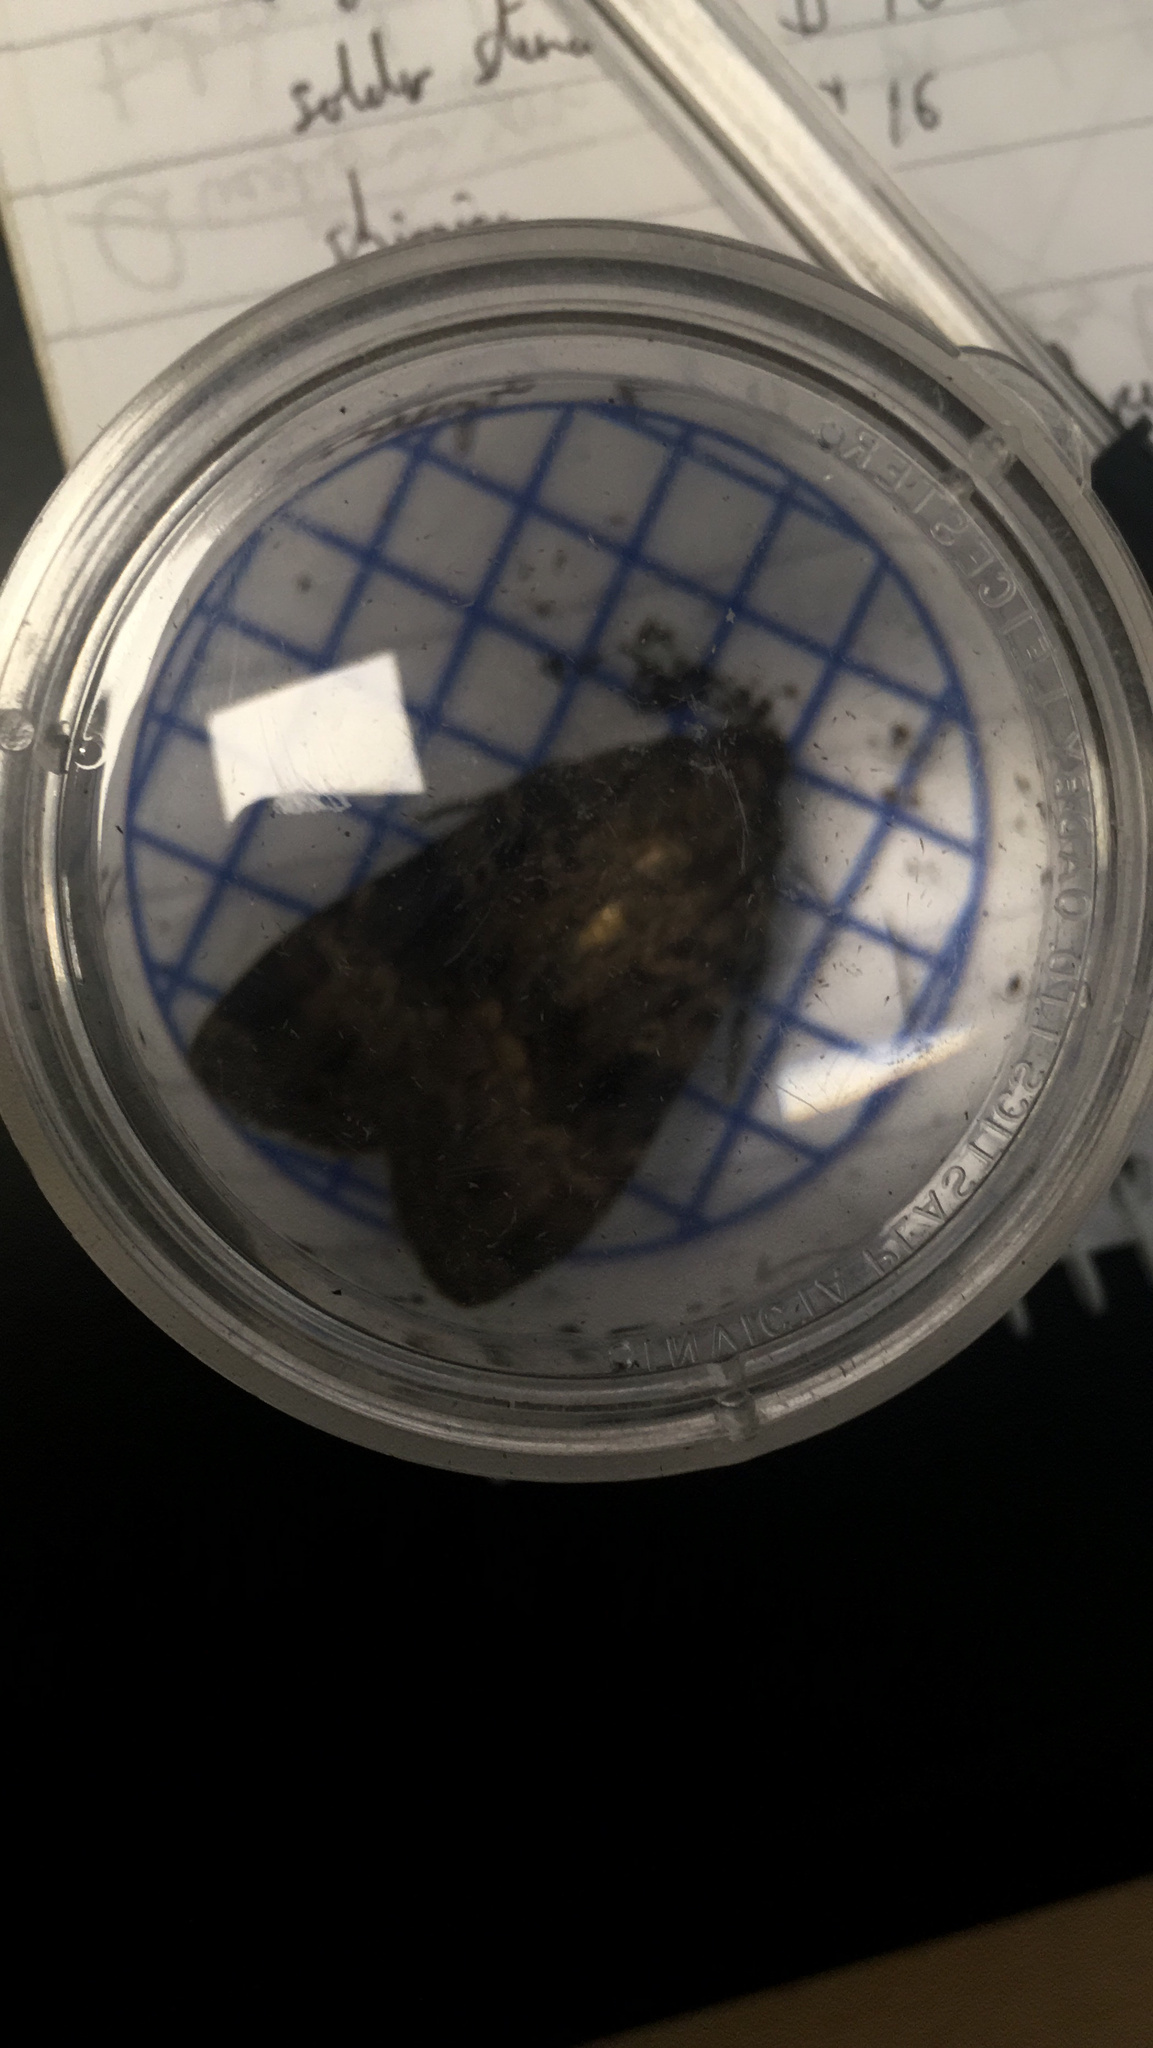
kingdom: Animalia
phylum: Arthropoda
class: Insecta
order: Lepidoptera
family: Noctuidae
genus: Amphipyra
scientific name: Amphipyra pyramidea
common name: Copper underwing
